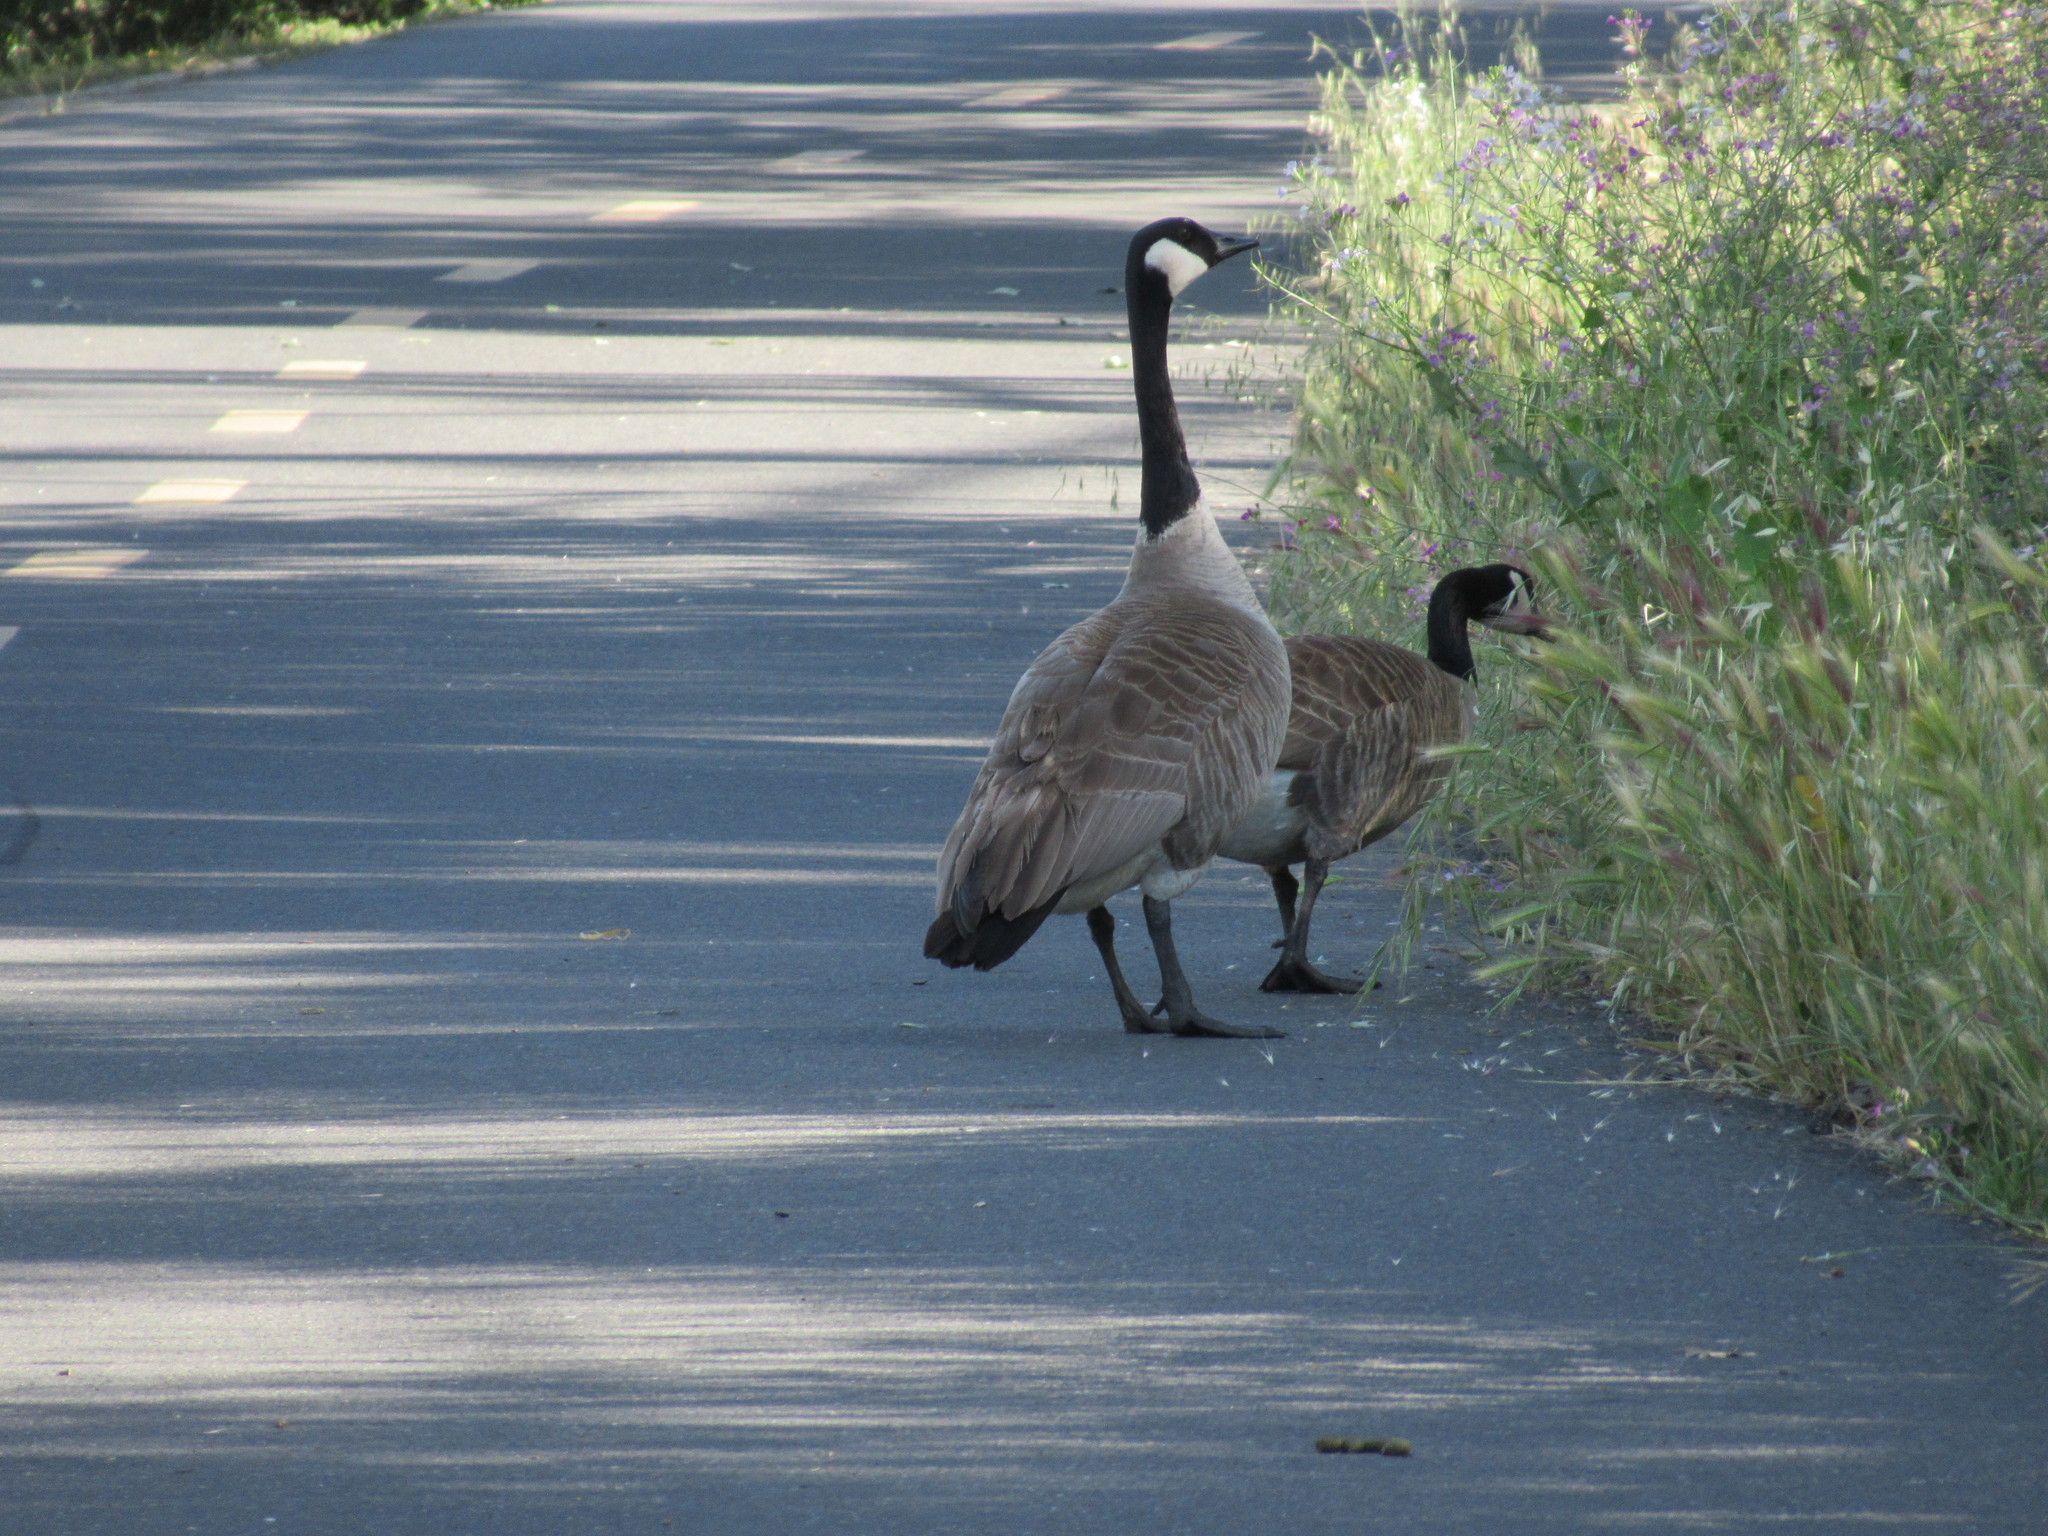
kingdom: Animalia
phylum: Chordata
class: Aves
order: Anseriformes
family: Anatidae
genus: Branta
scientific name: Branta canadensis
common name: Canada goose
